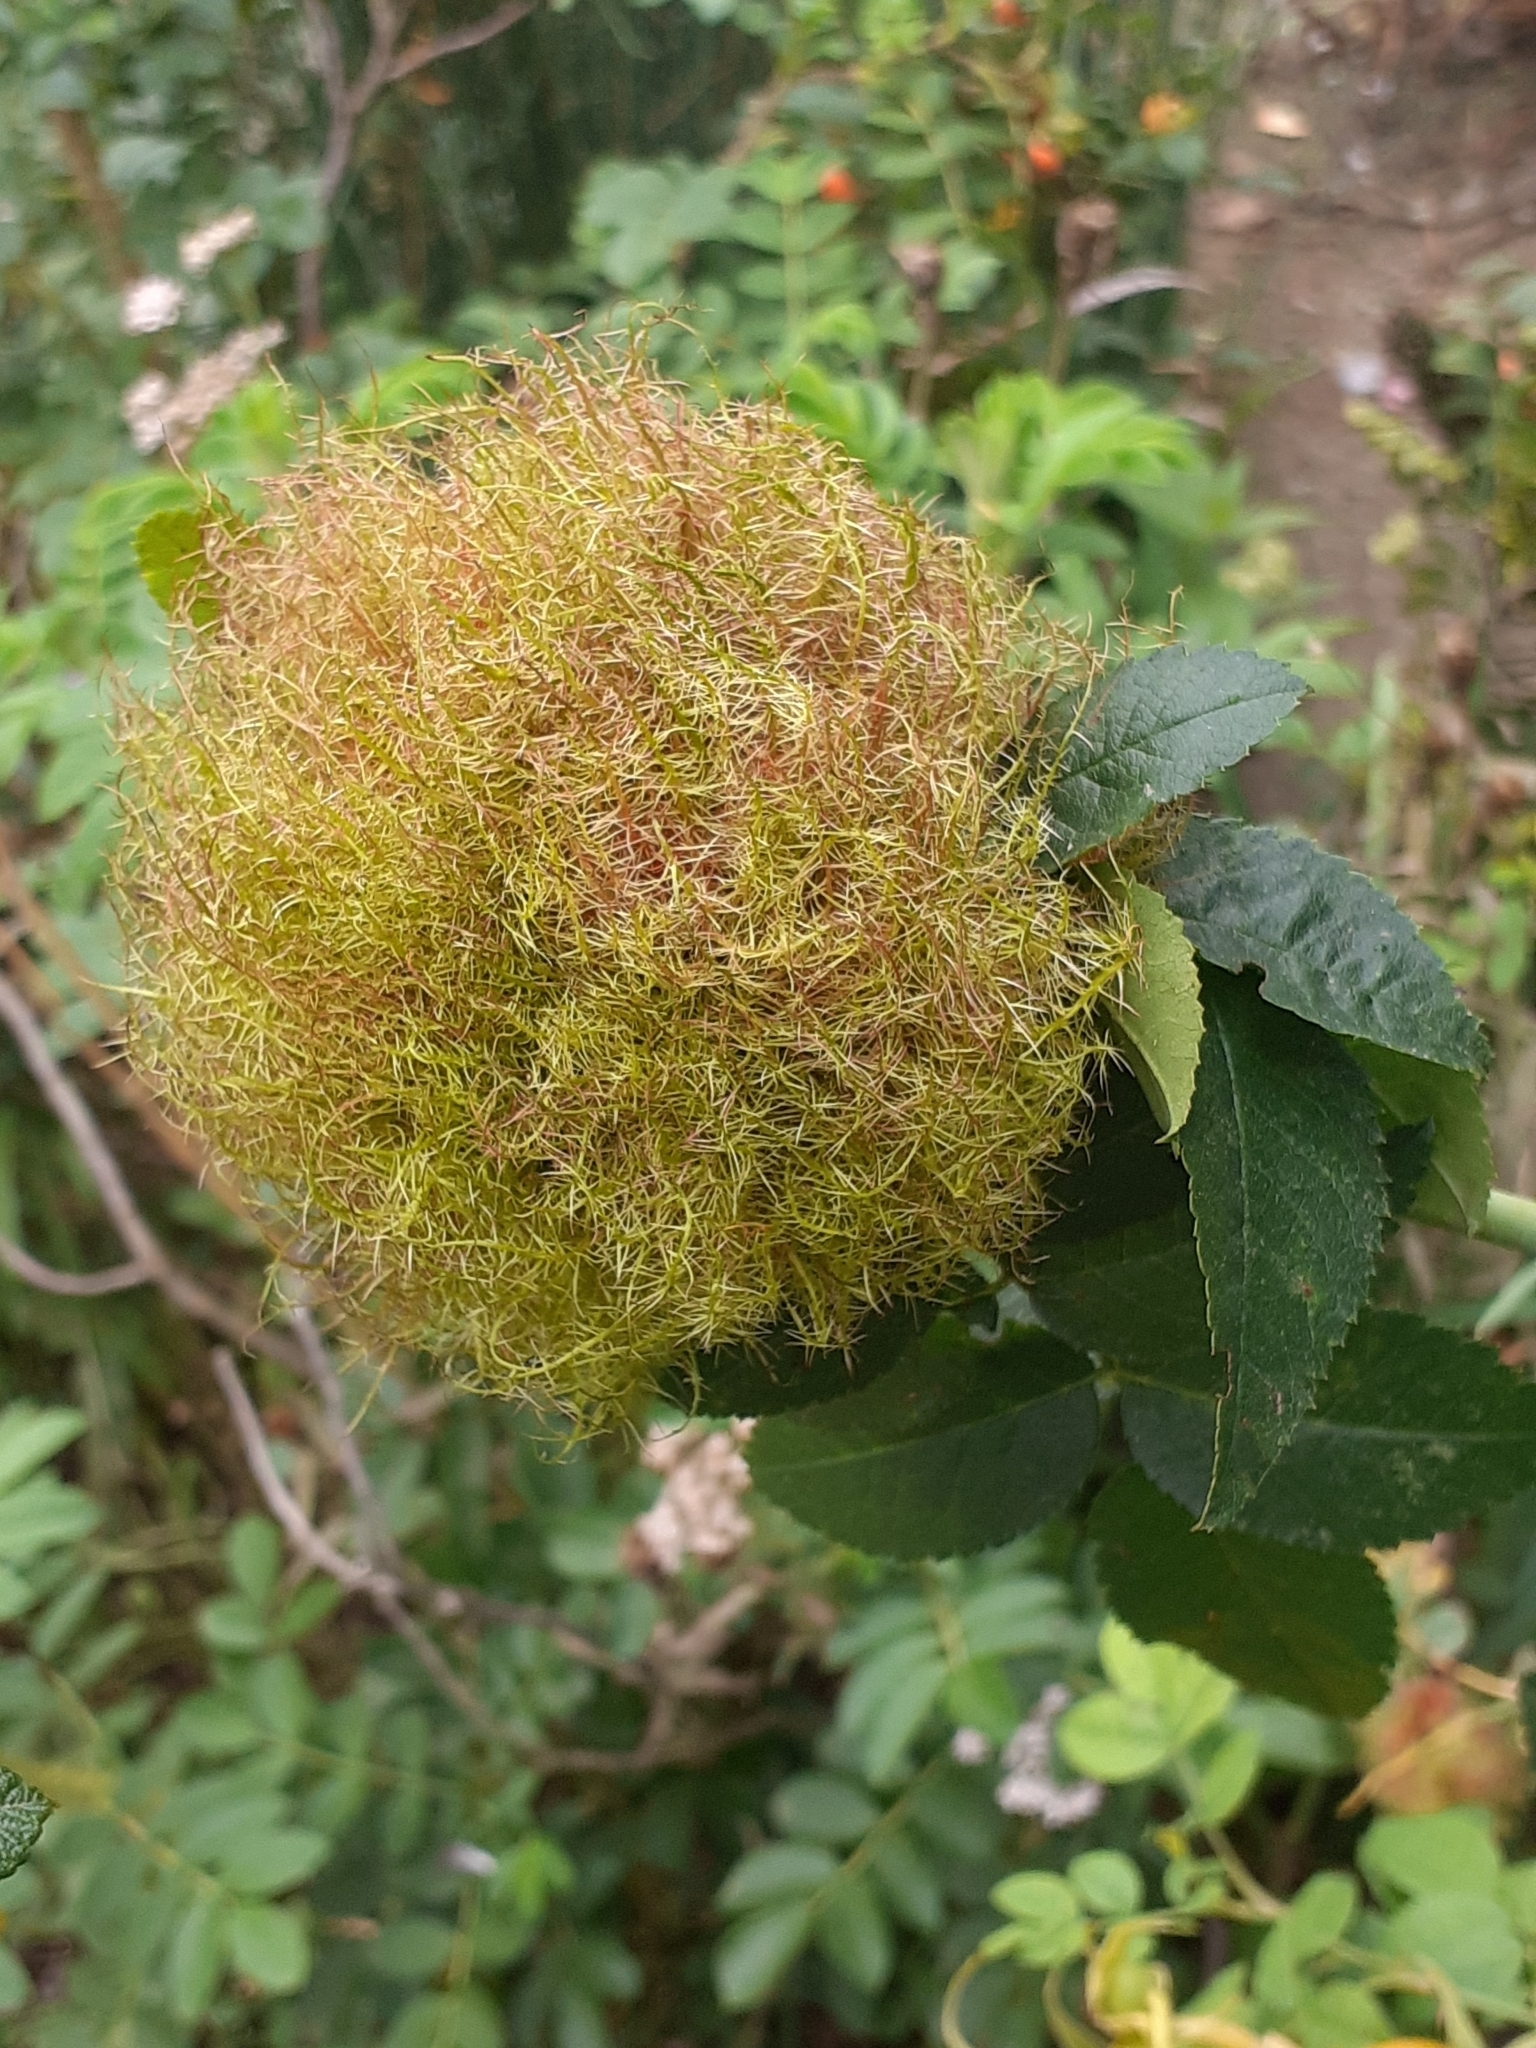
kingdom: Animalia
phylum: Arthropoda
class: Insecta
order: Hymenoptera
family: Cynipidae
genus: Diplolepis
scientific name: Diplolepis rosae
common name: Bedeguar gall
